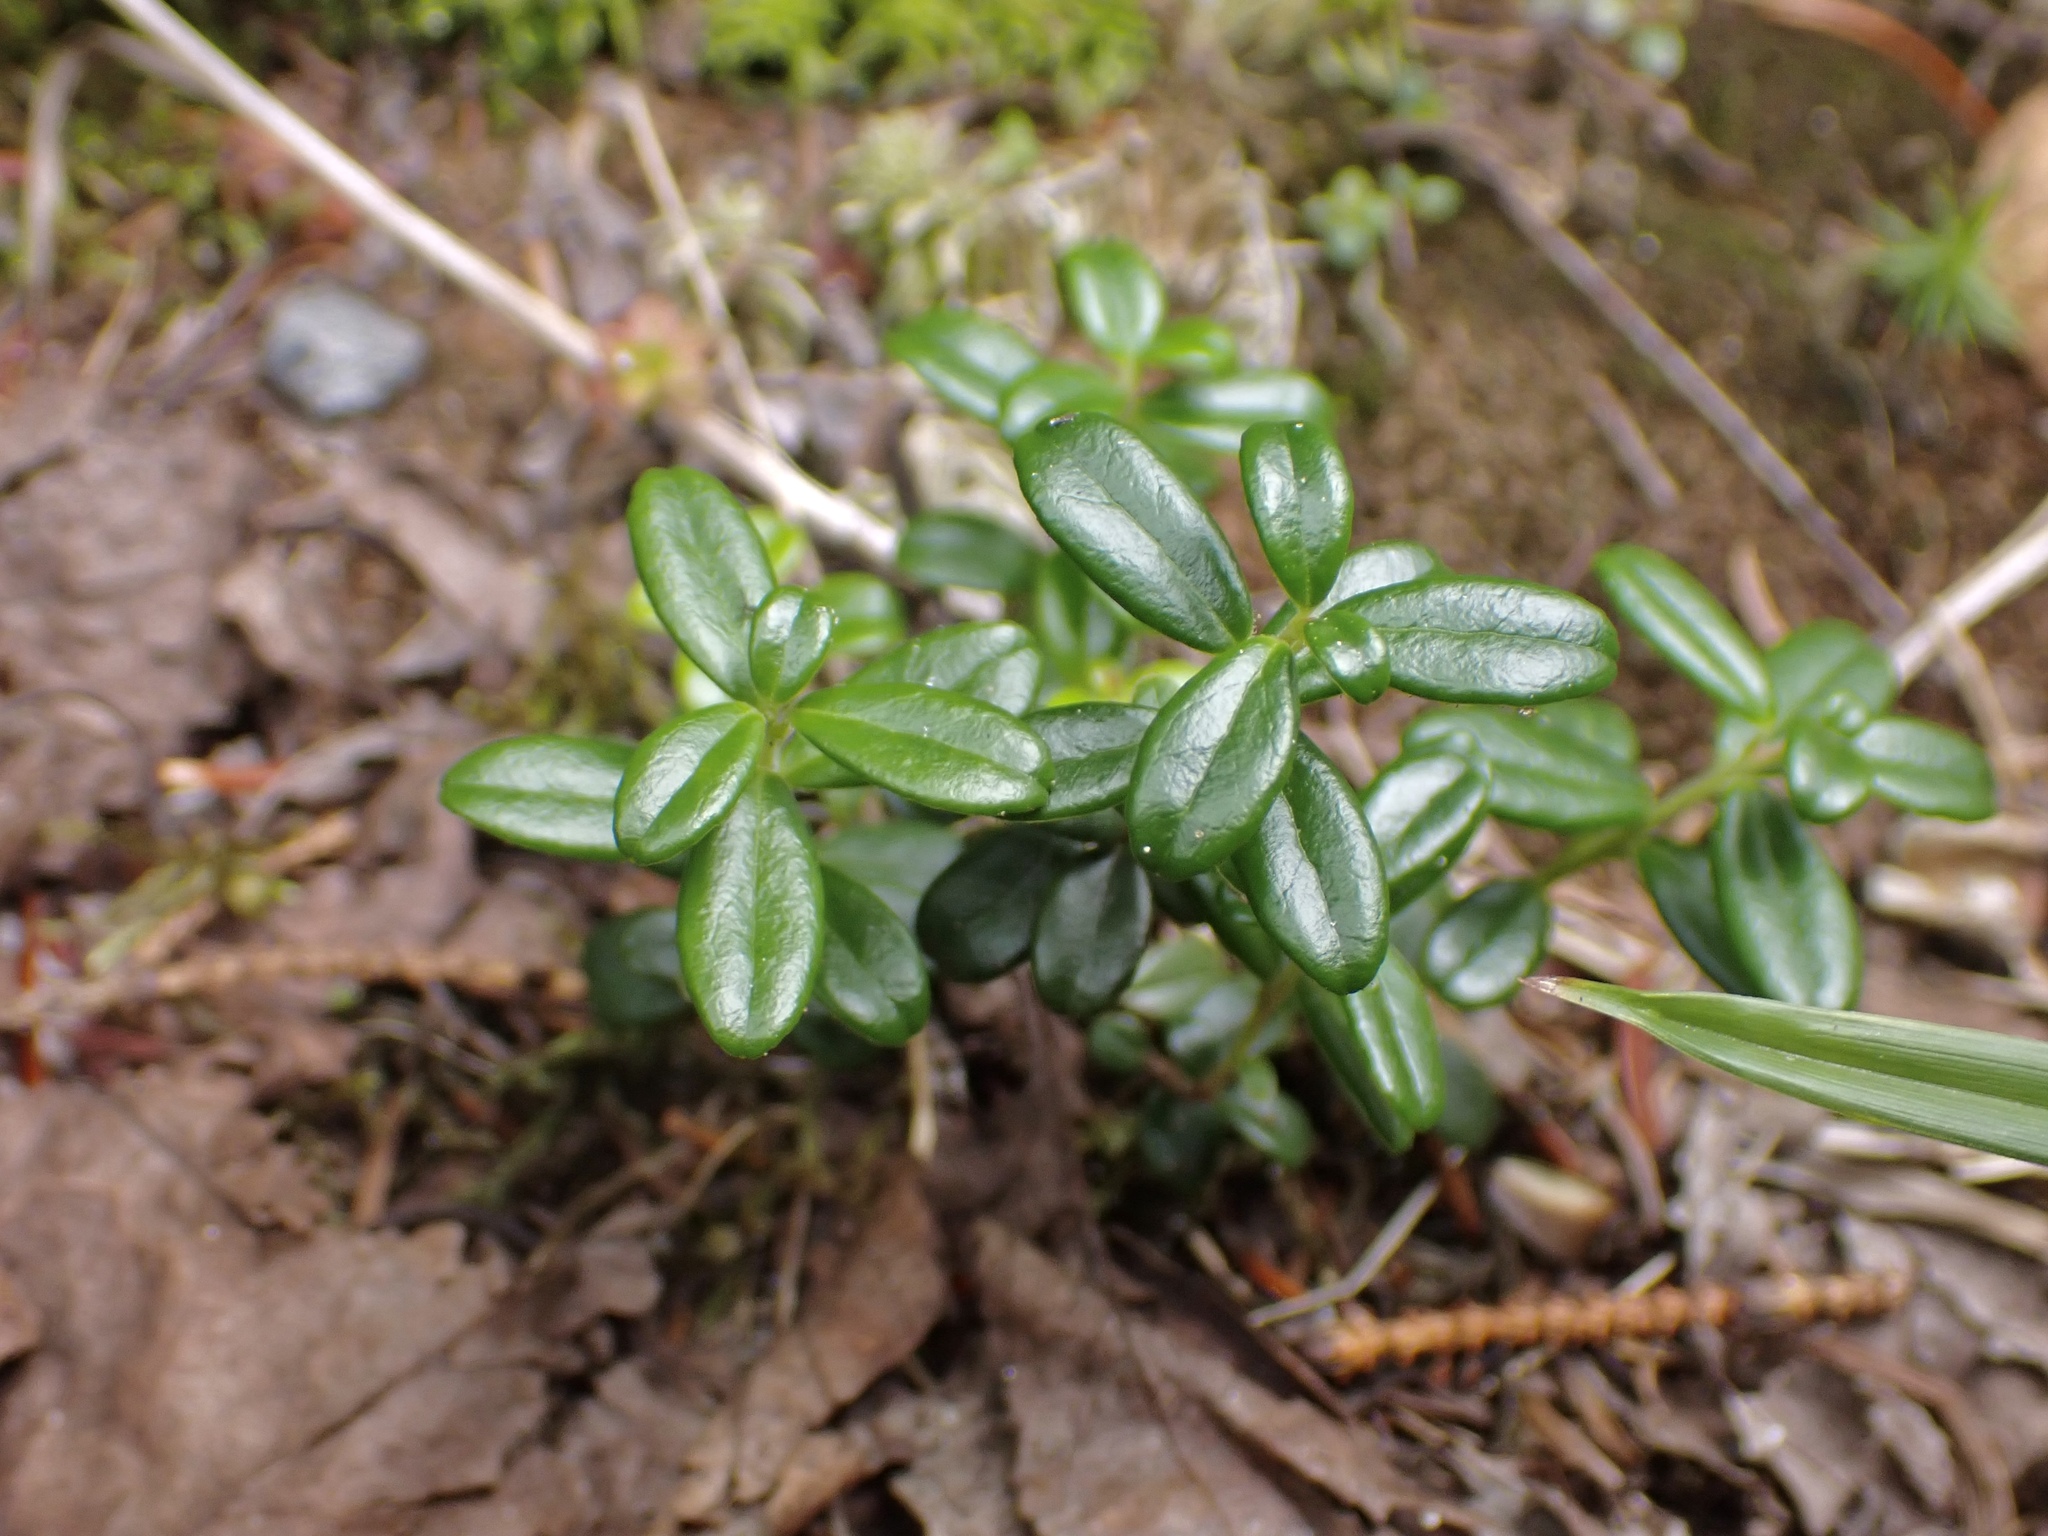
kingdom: Plantae
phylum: Tracheophyta
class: Magnoliopsida
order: Ericales
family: Ericaceae
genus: Vaccinium
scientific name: Vaccinium vitis-idaea
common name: Cowberry
